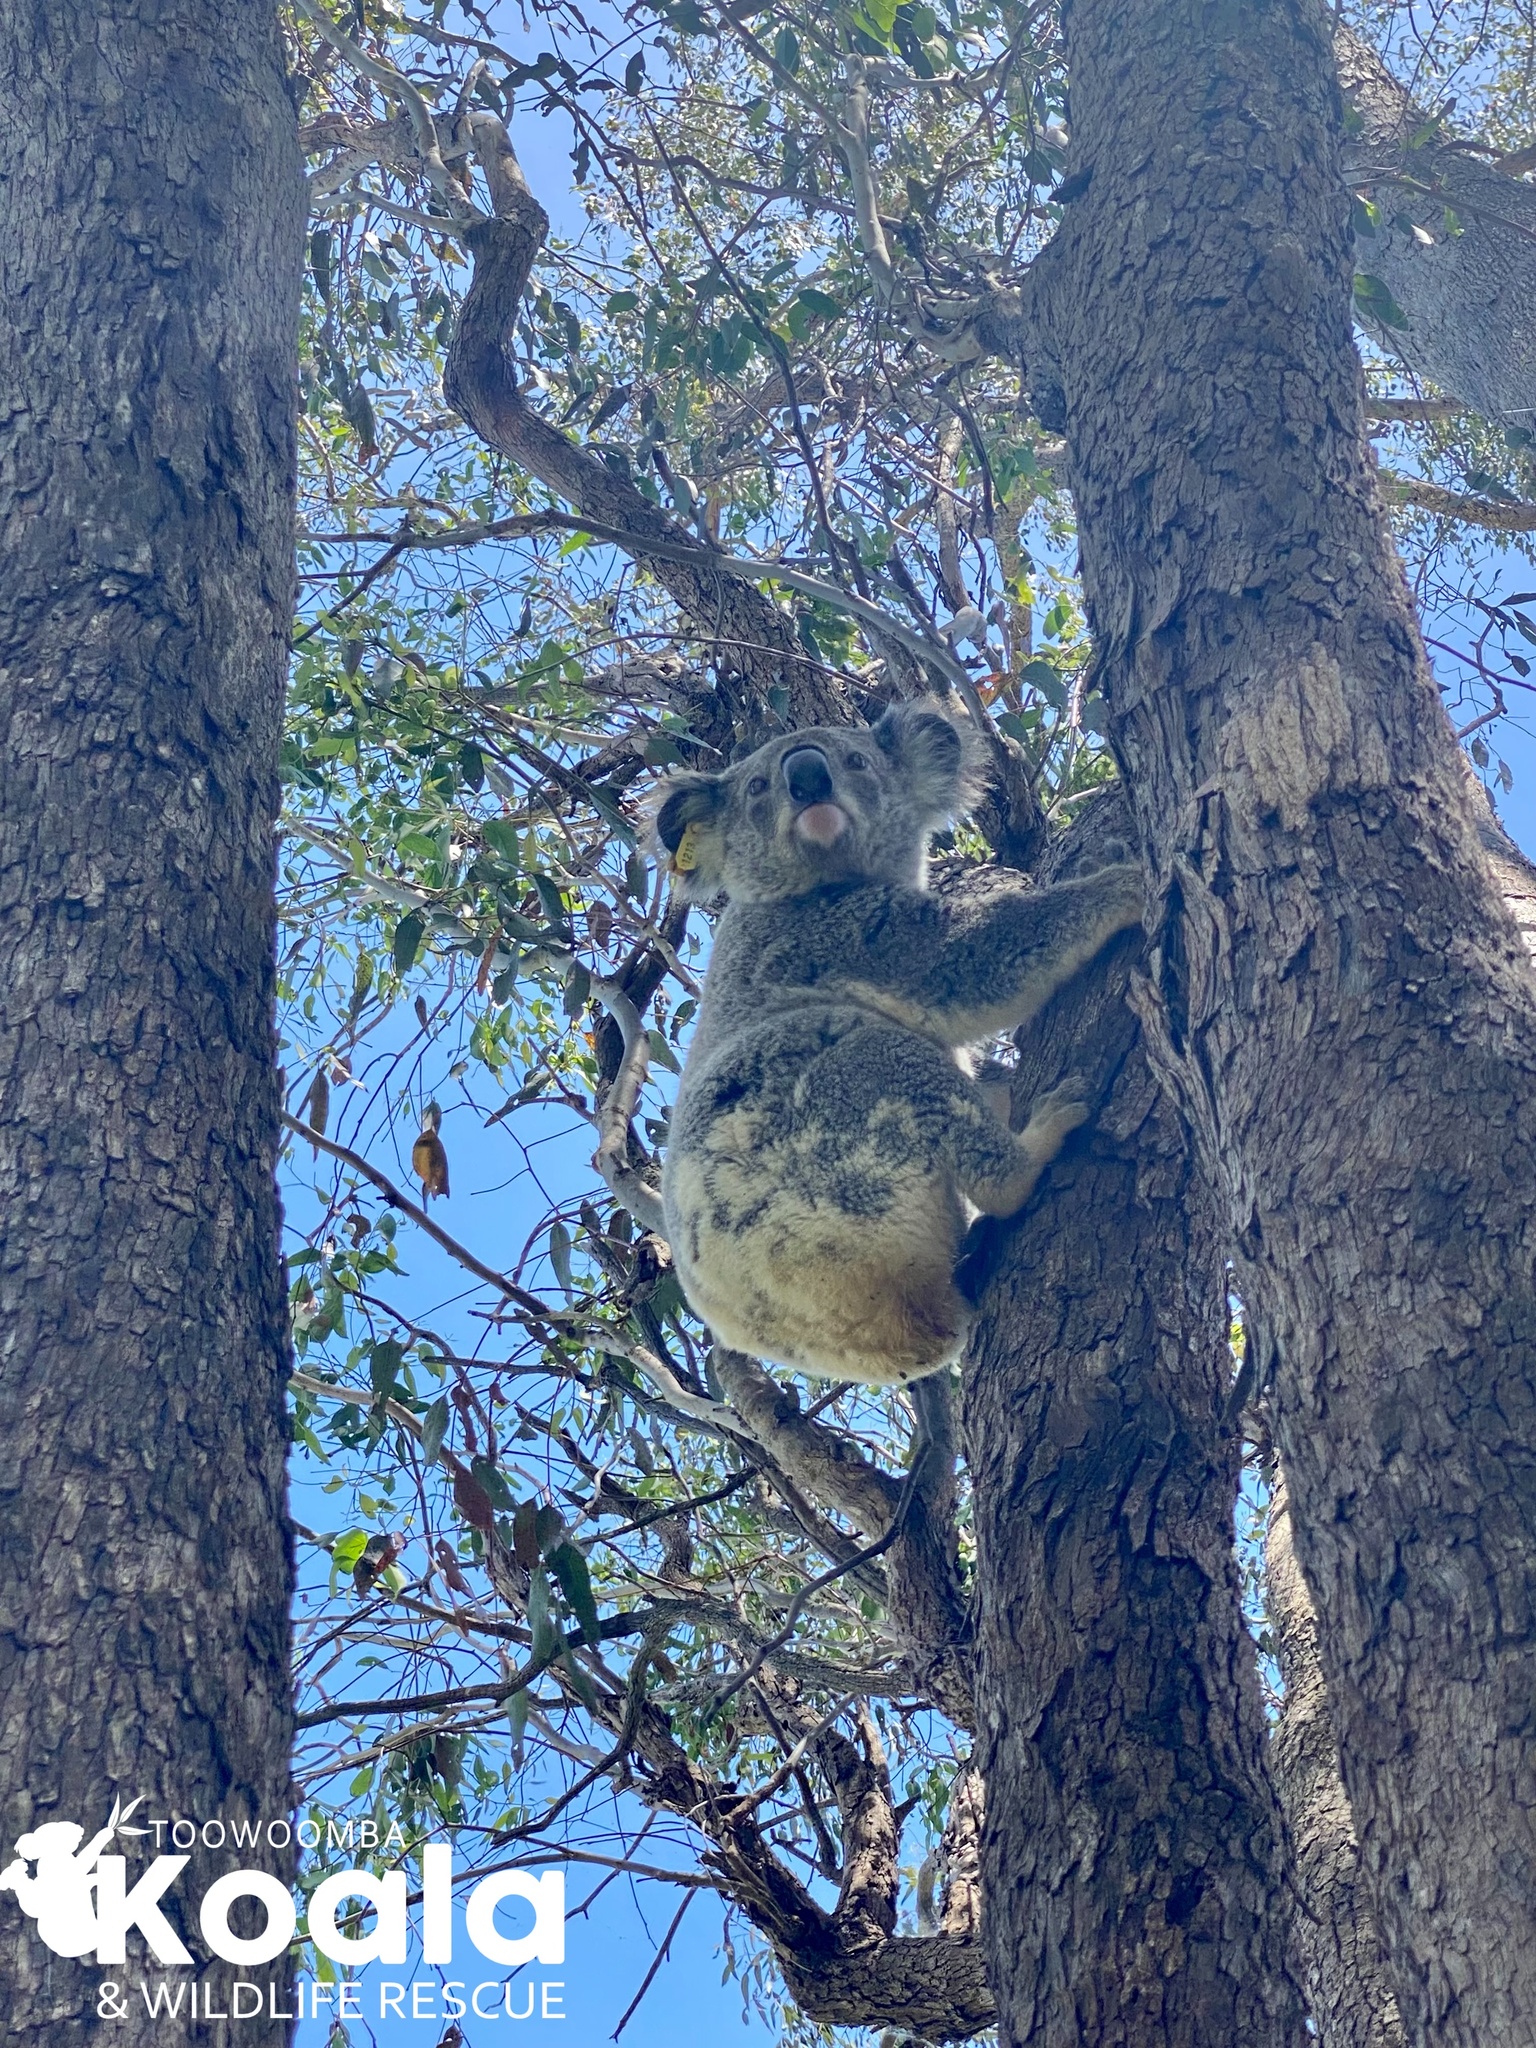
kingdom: Animalia
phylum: Chordata
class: Mammalia
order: Diprotodontia
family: Phascolarctidae
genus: Phascolarctos
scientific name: Phascolarctos cinereus
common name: Koala
